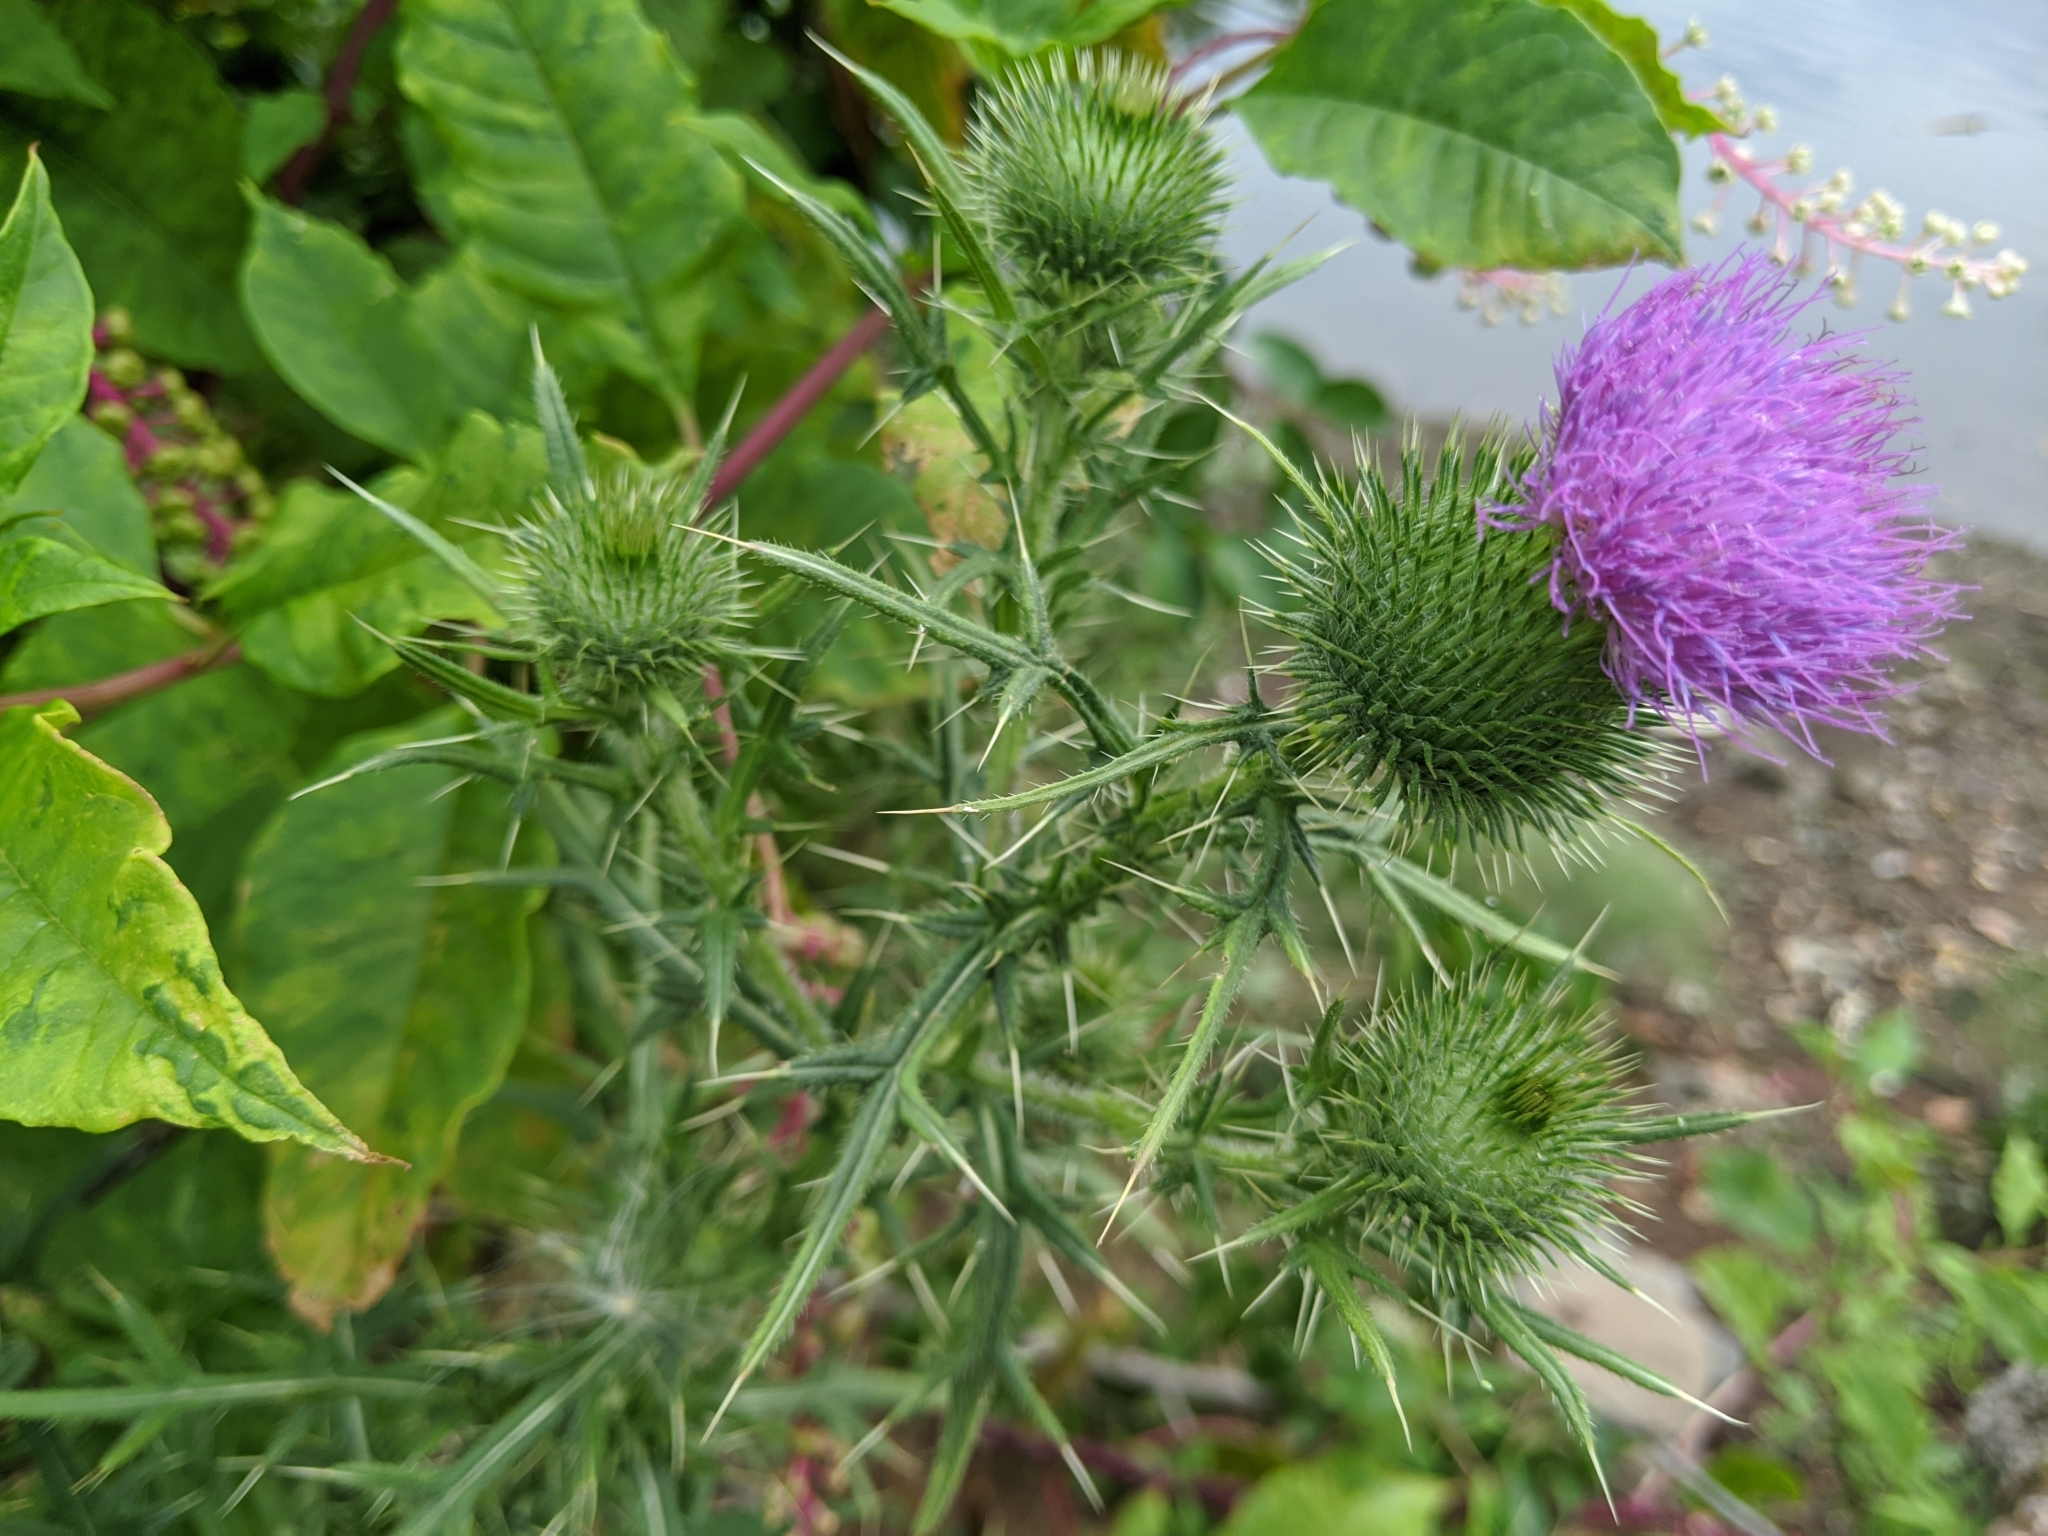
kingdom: Plantae
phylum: Tracheophyta
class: Magnoliopsida
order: Asterales
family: Asteraceae
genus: Cirsium
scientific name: Cirsium vulgare
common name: Bull thistle
